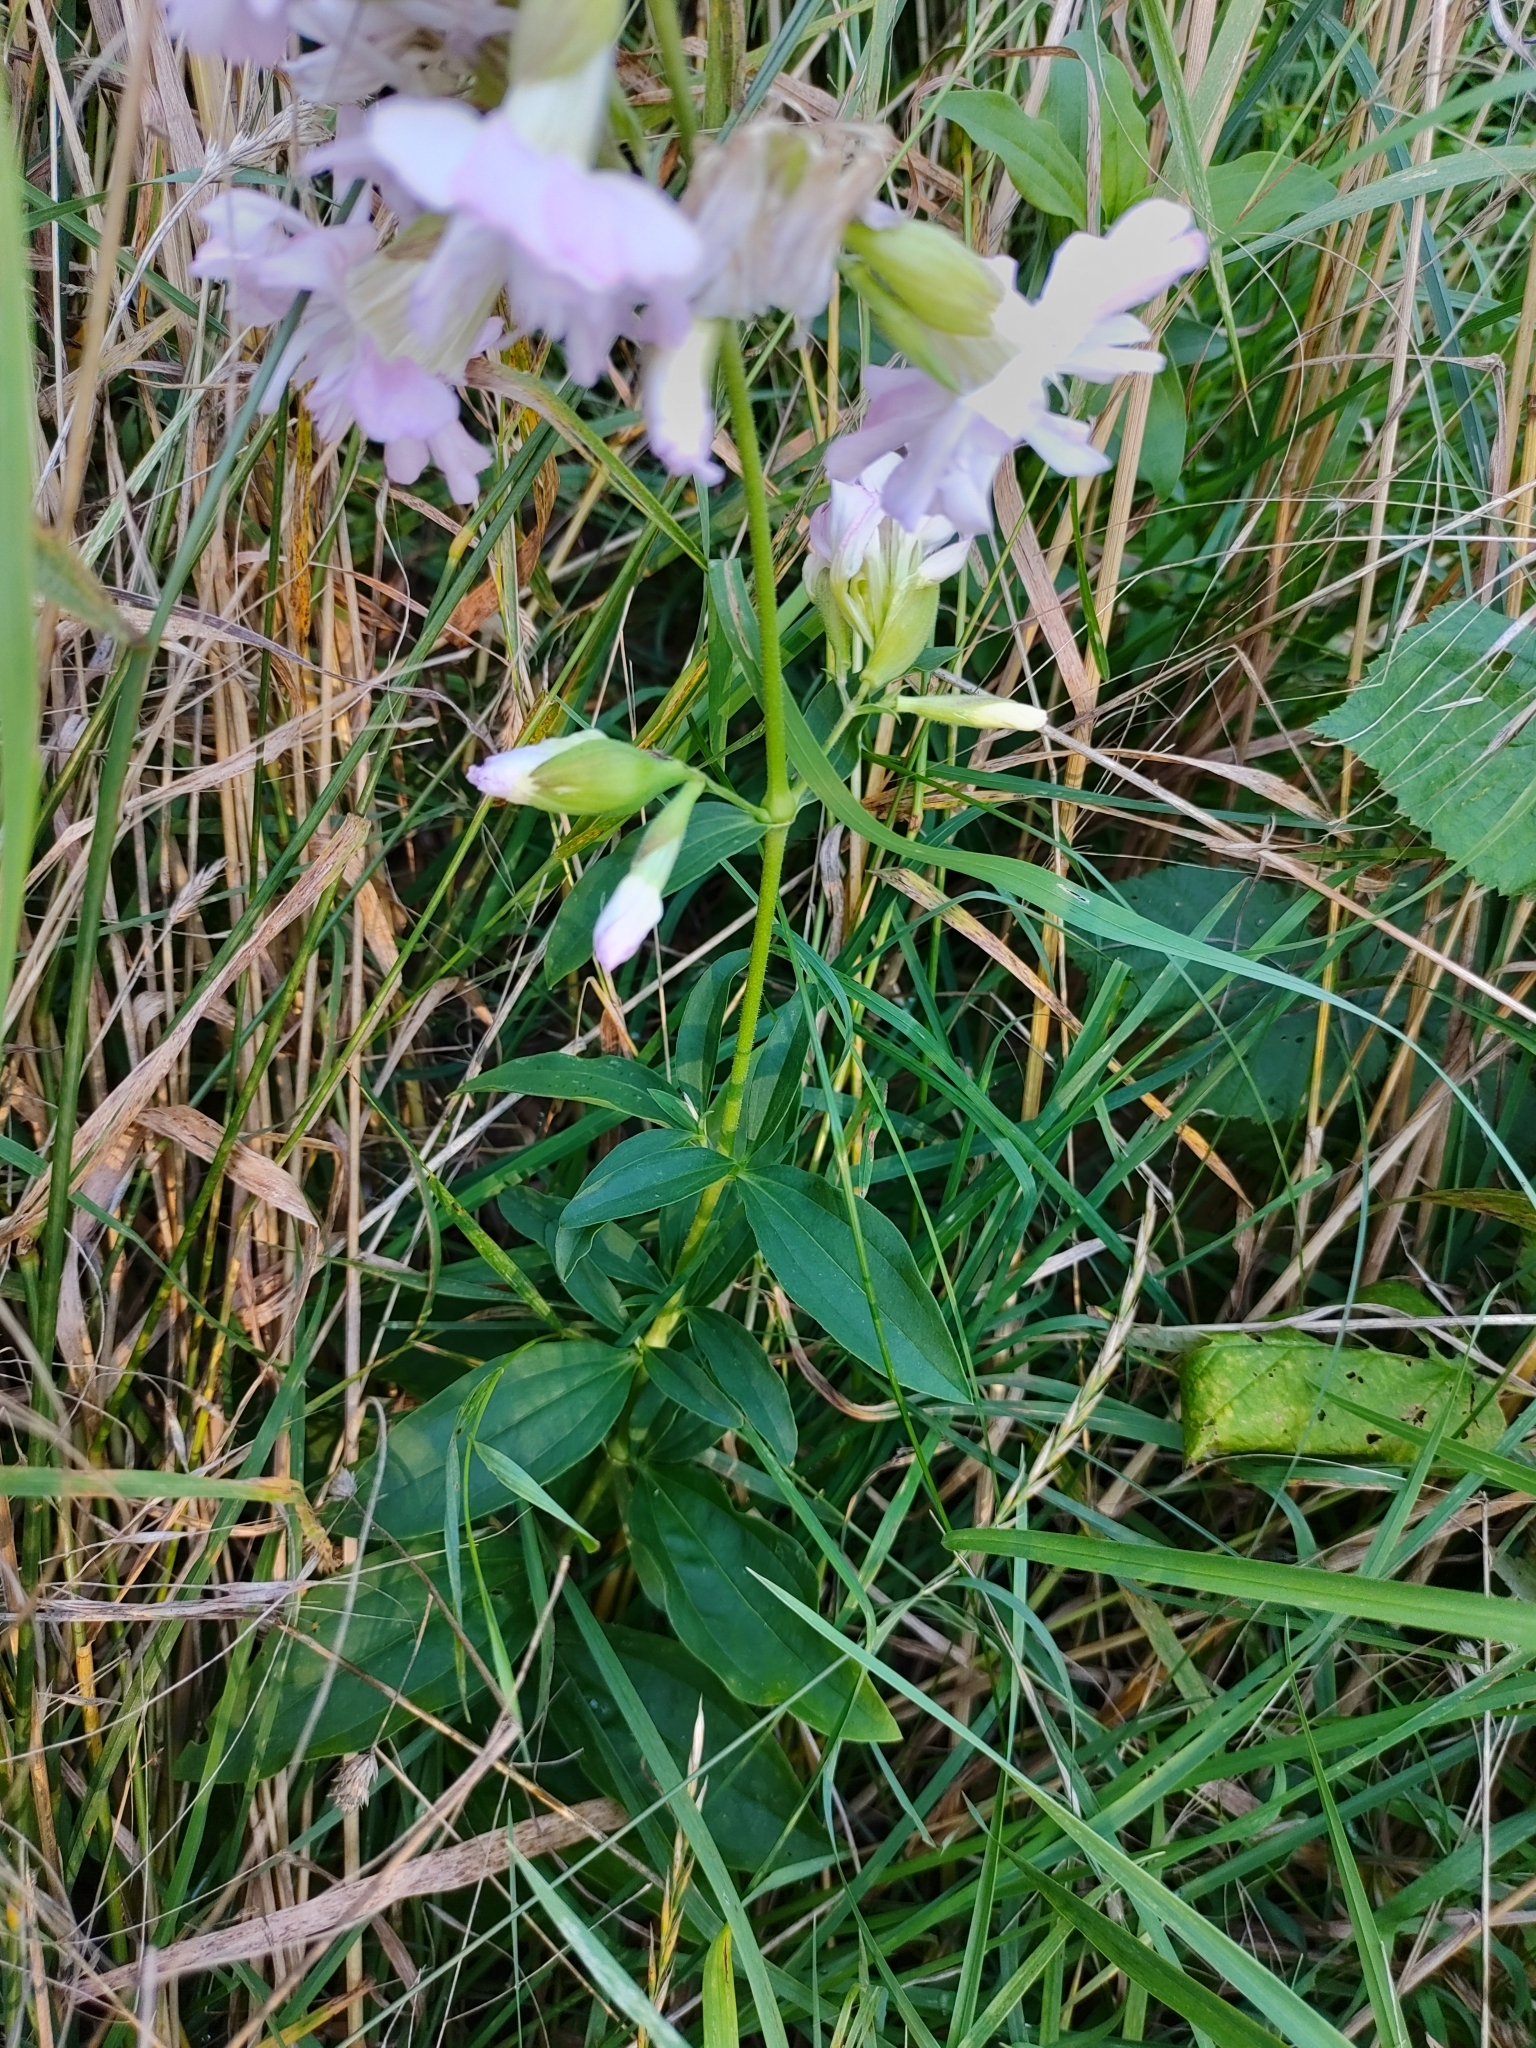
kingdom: Plantae
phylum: Tracheophyta
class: Magnoliopsida
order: Caryophyllales
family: Caryophyllaceae
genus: Saponaria
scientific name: Saponaria officinalis
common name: Soapwort
